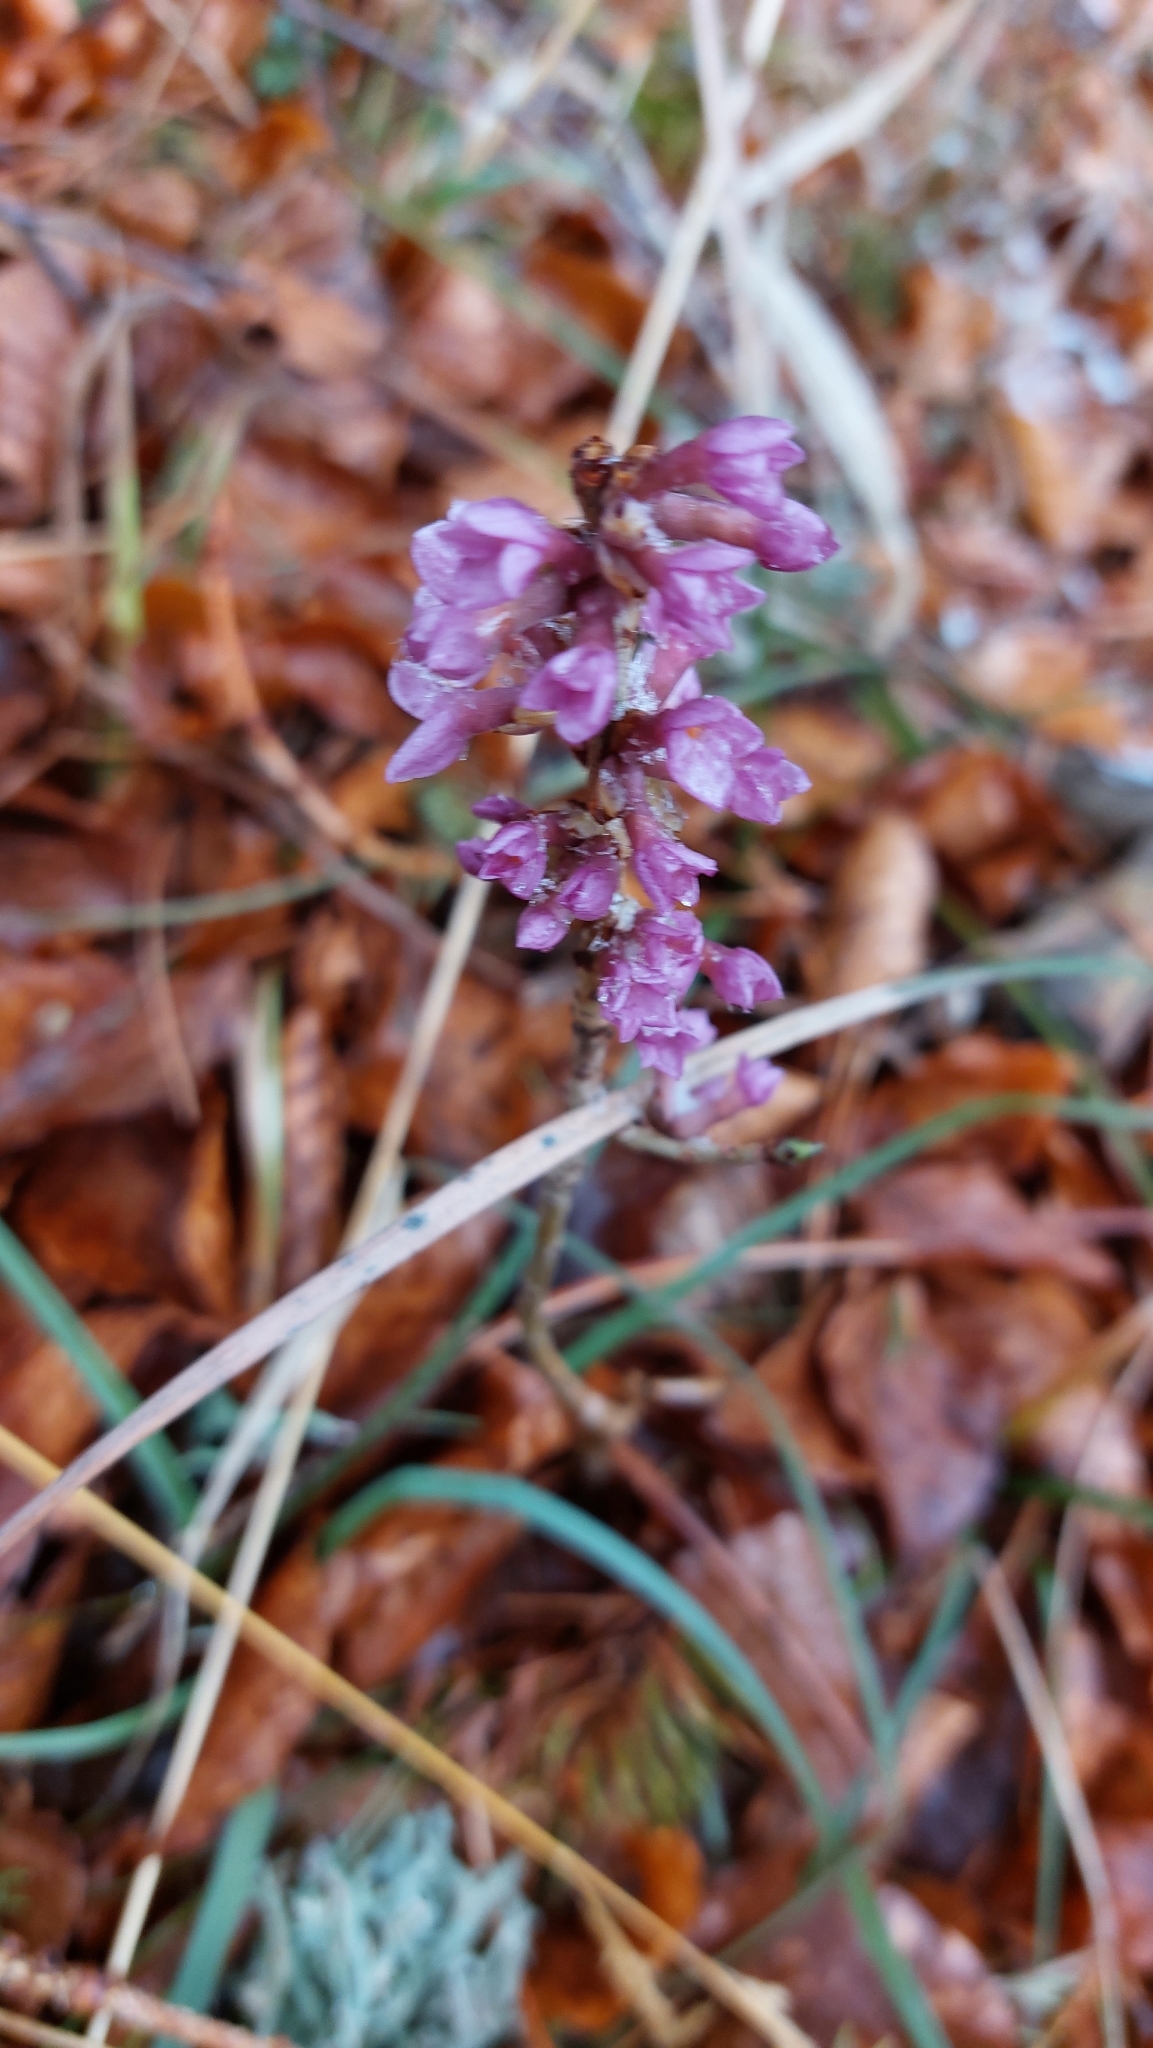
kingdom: Plantae
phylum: Tracheophyta
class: Magnoliopsida
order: Malvales
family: Thymelaeaceae
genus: Daphne
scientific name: Daphne mezereum
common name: Mezereon
